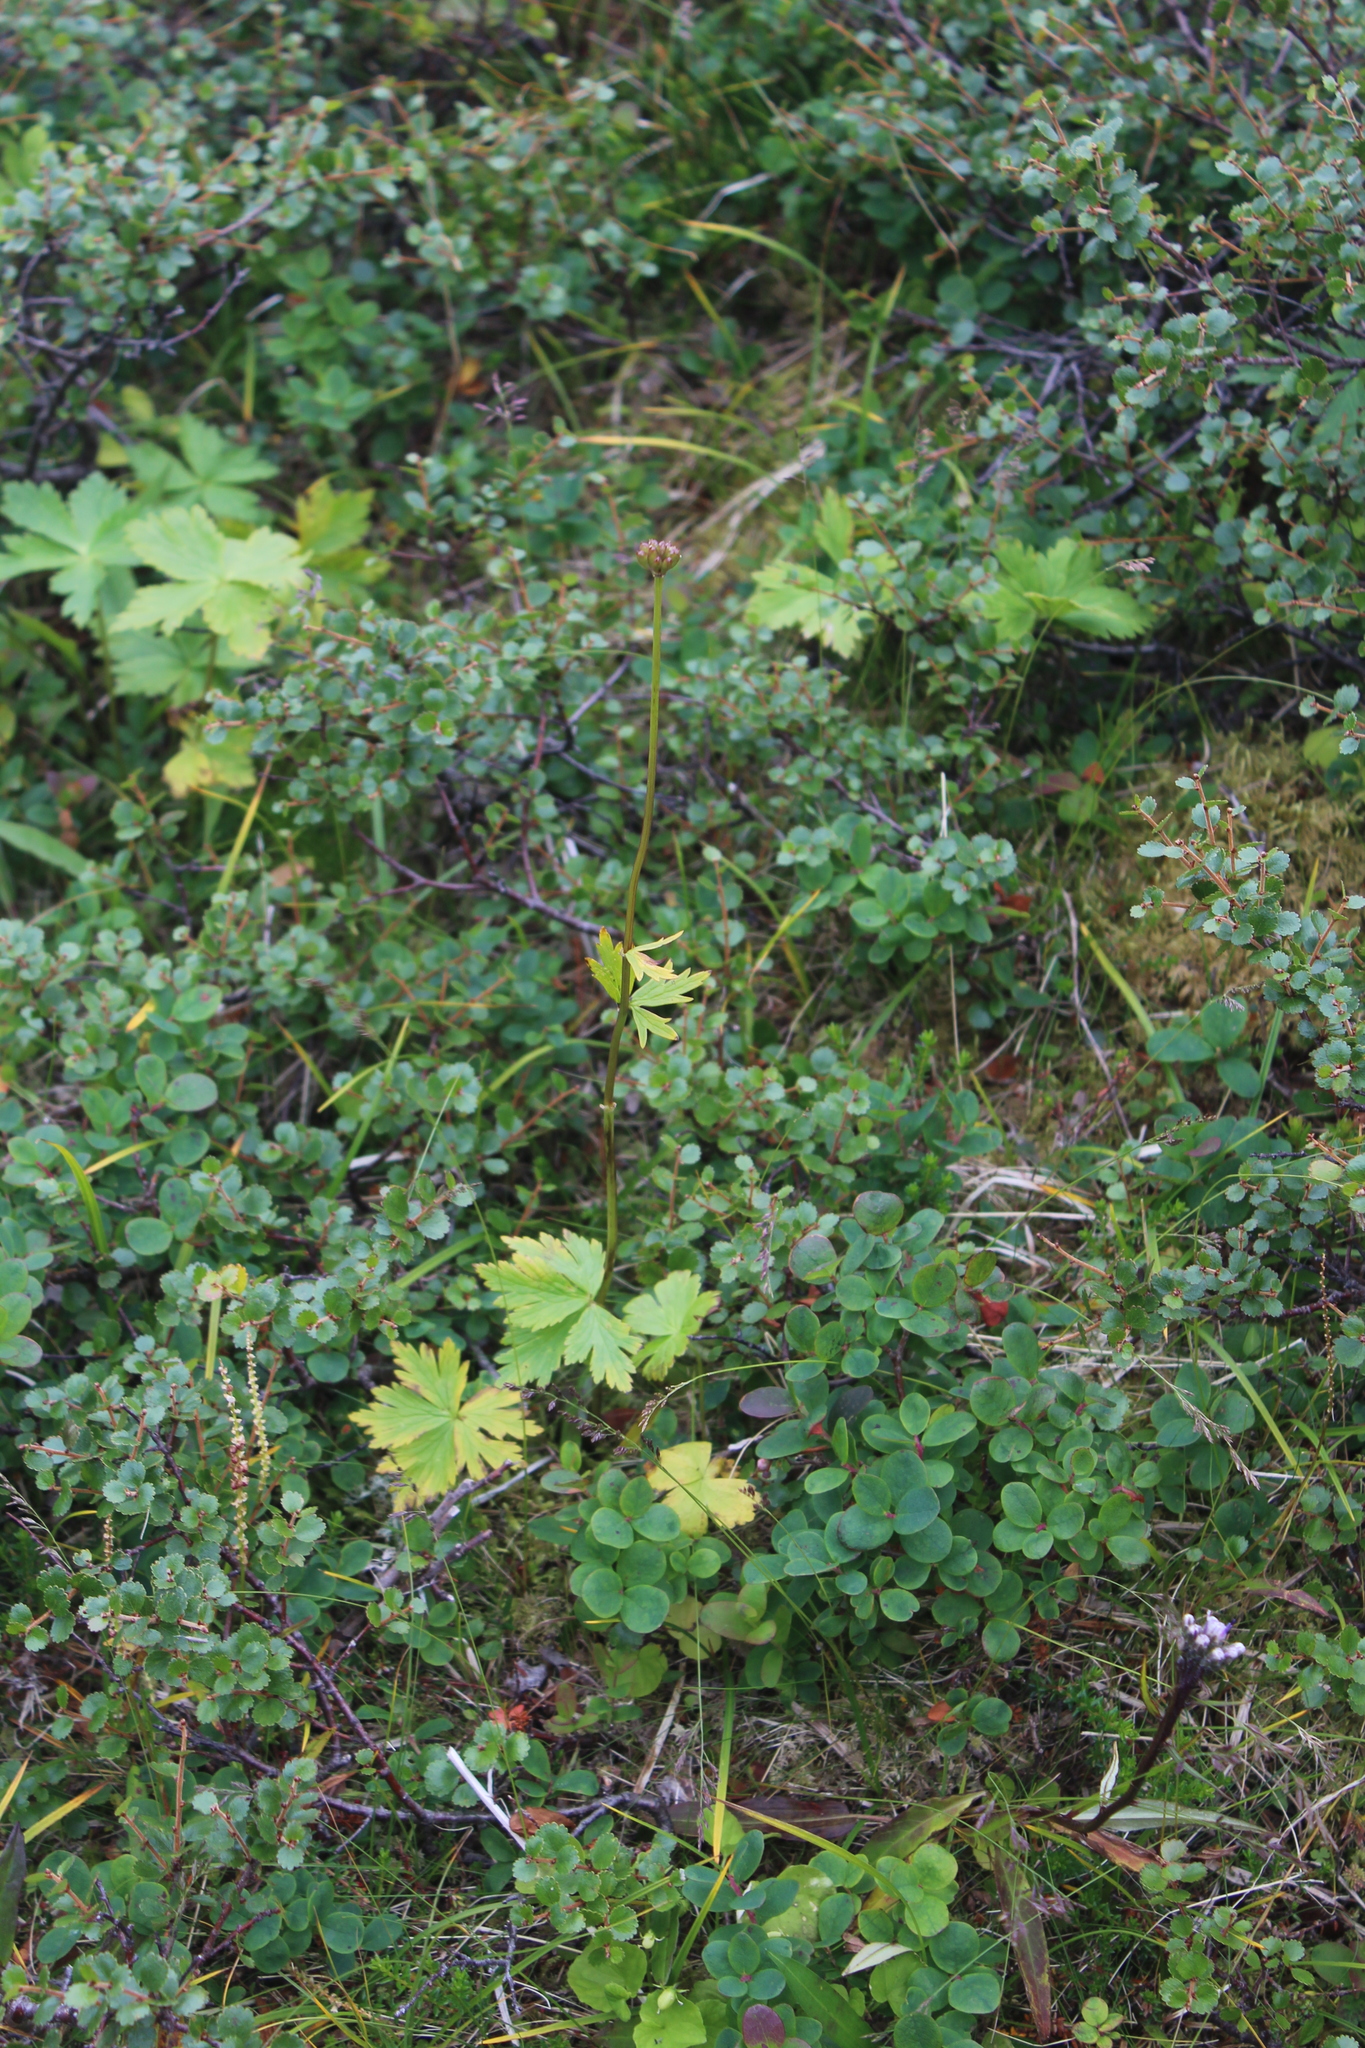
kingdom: Plantae
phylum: Tracheophyta
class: Magnoliopsida
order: Ranunculales
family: Ranunculaceae
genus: Trollius
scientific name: Trollius europaeus
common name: European globeflower
